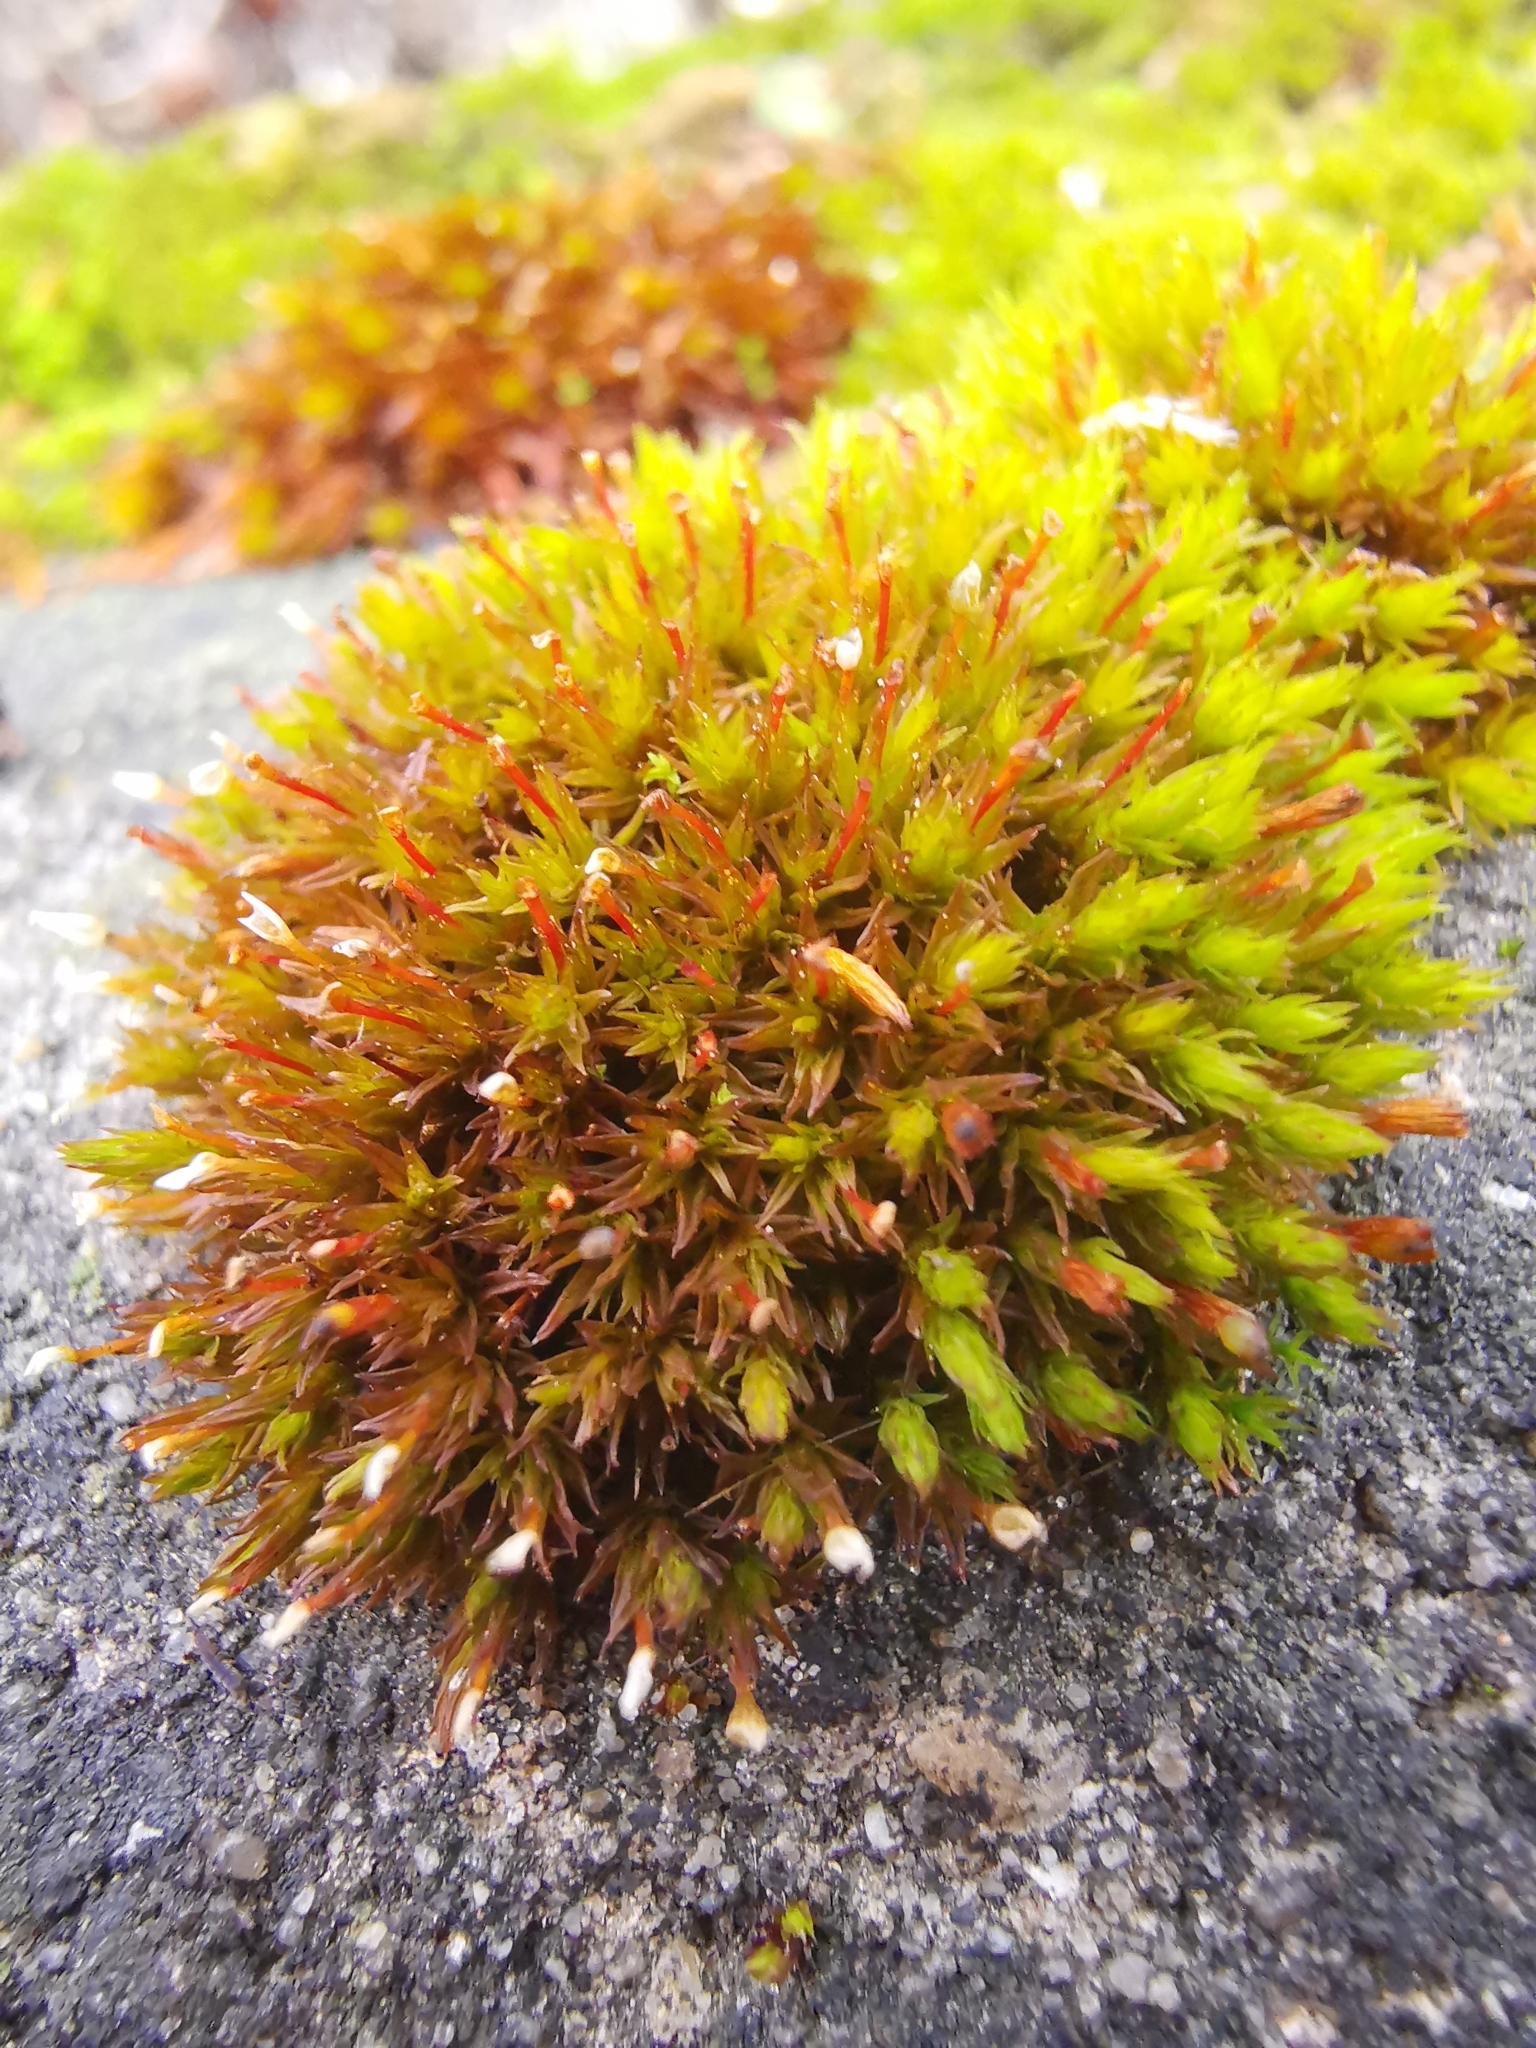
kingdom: Plantae
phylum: Bryophyta
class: Bryopsida
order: Orthotrichales
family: Orthotrichaceae
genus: Orthotrichum
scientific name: Orthotrichum anomalum
